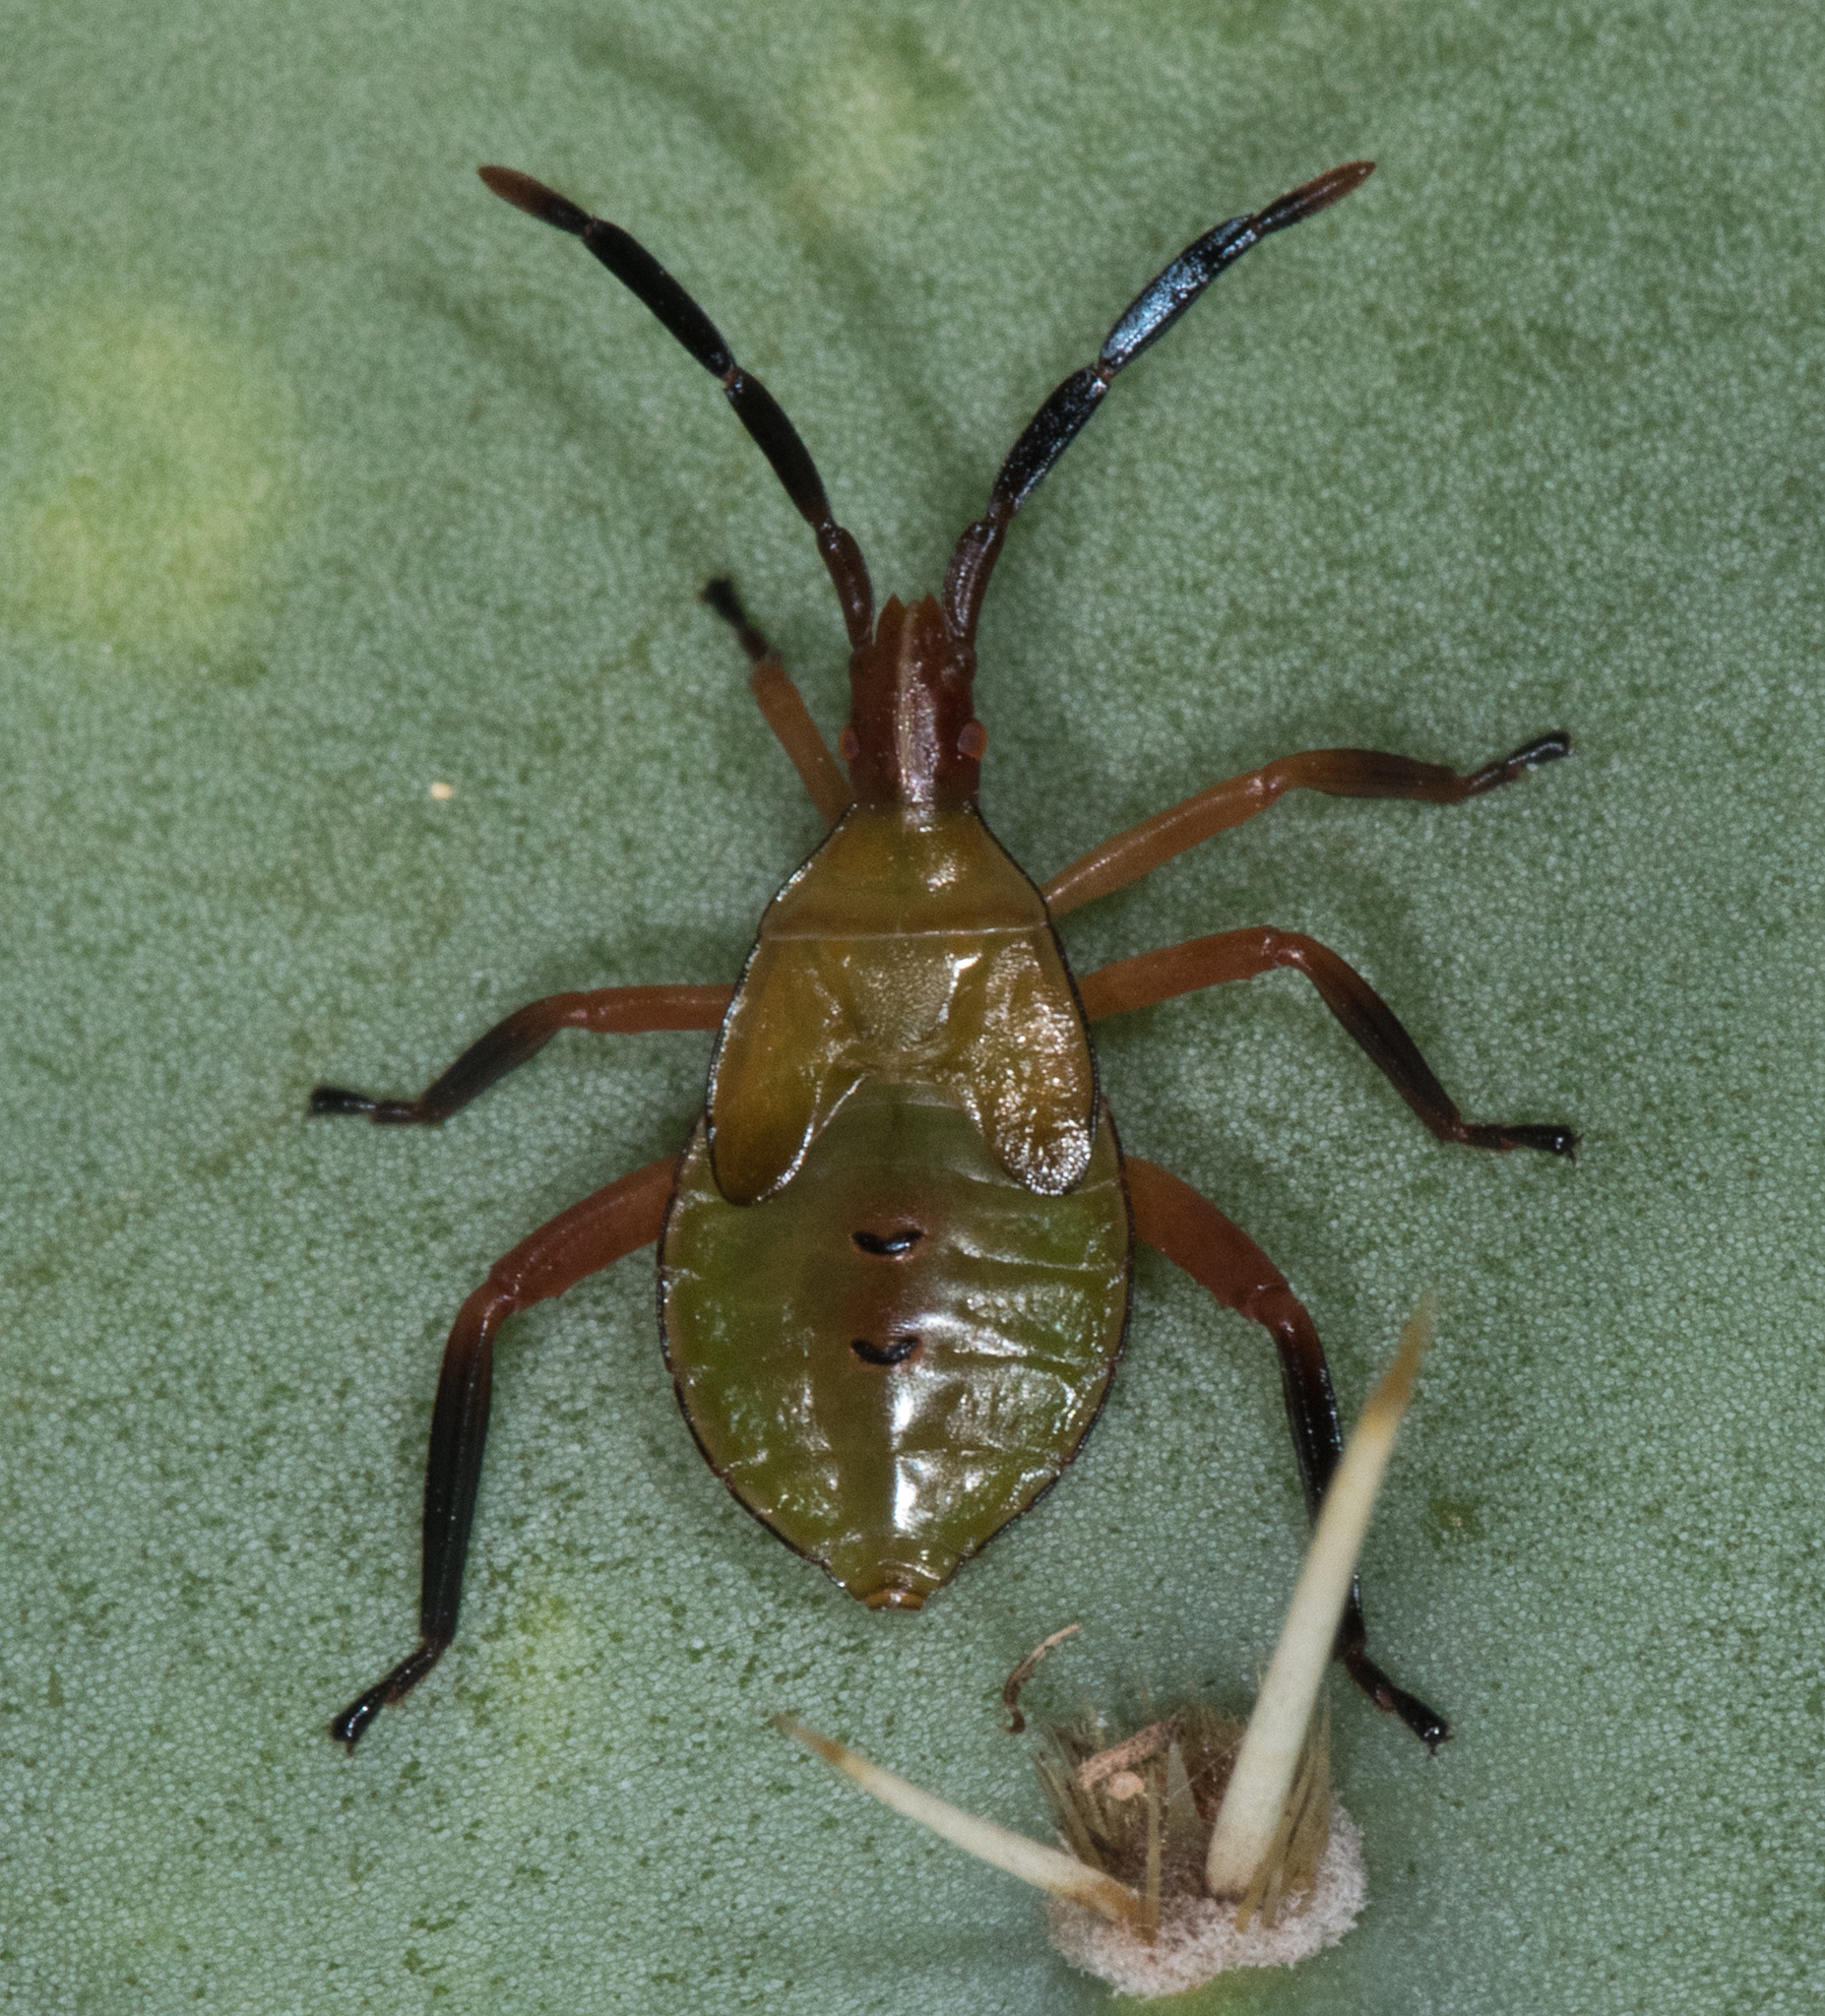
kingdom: Animalia
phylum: Arthropoda
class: Insecta
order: Hemiptera
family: Coreidae
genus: Chelinidea
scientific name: Chelinidea vittiger
